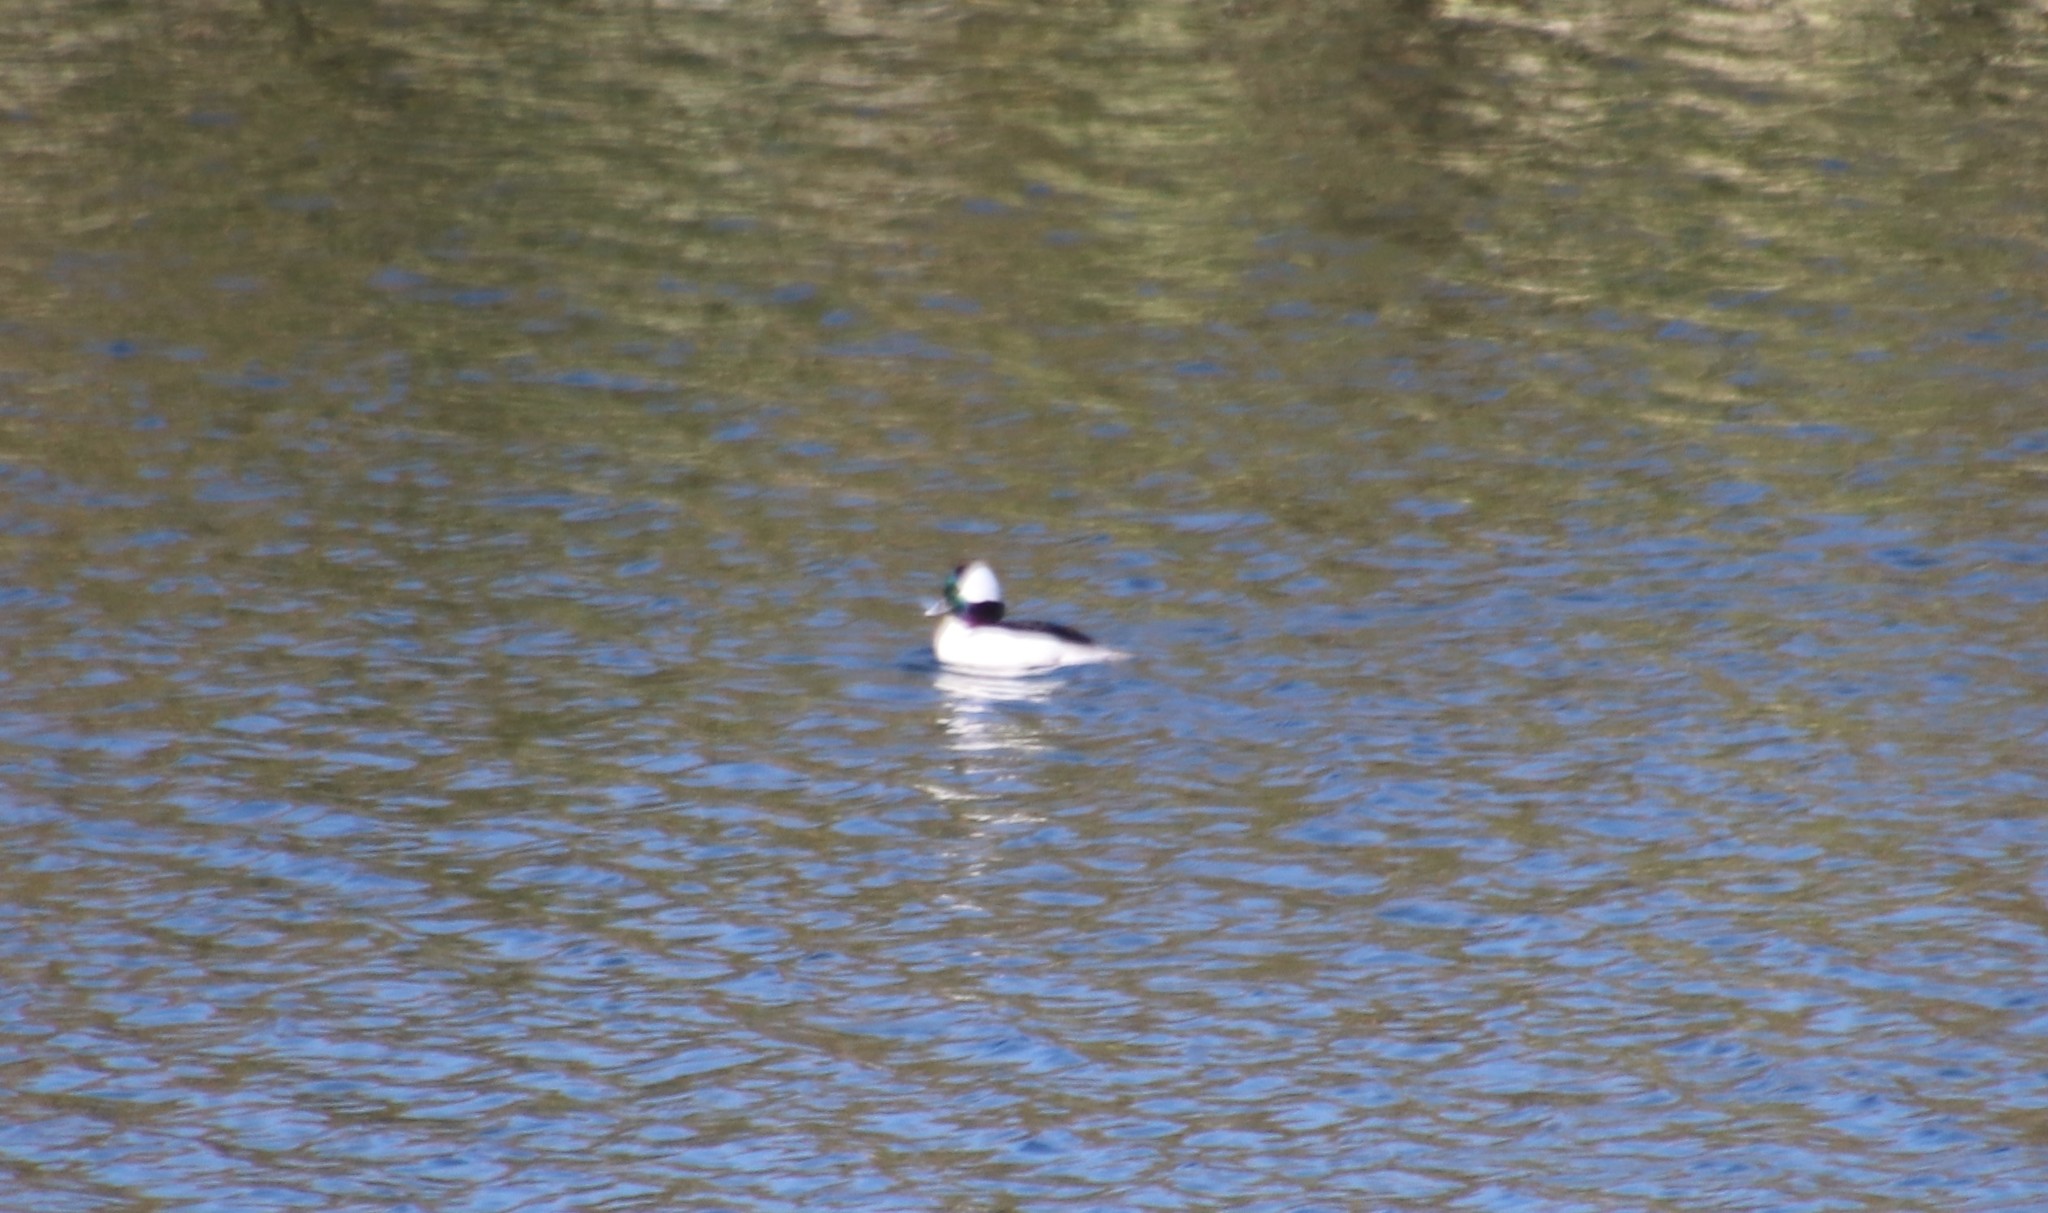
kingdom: Animalia
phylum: Chordata
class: Aves
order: Anseriformes
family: Anatidae
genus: Bucephala
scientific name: Bucephala albeola
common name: Bufflehead
